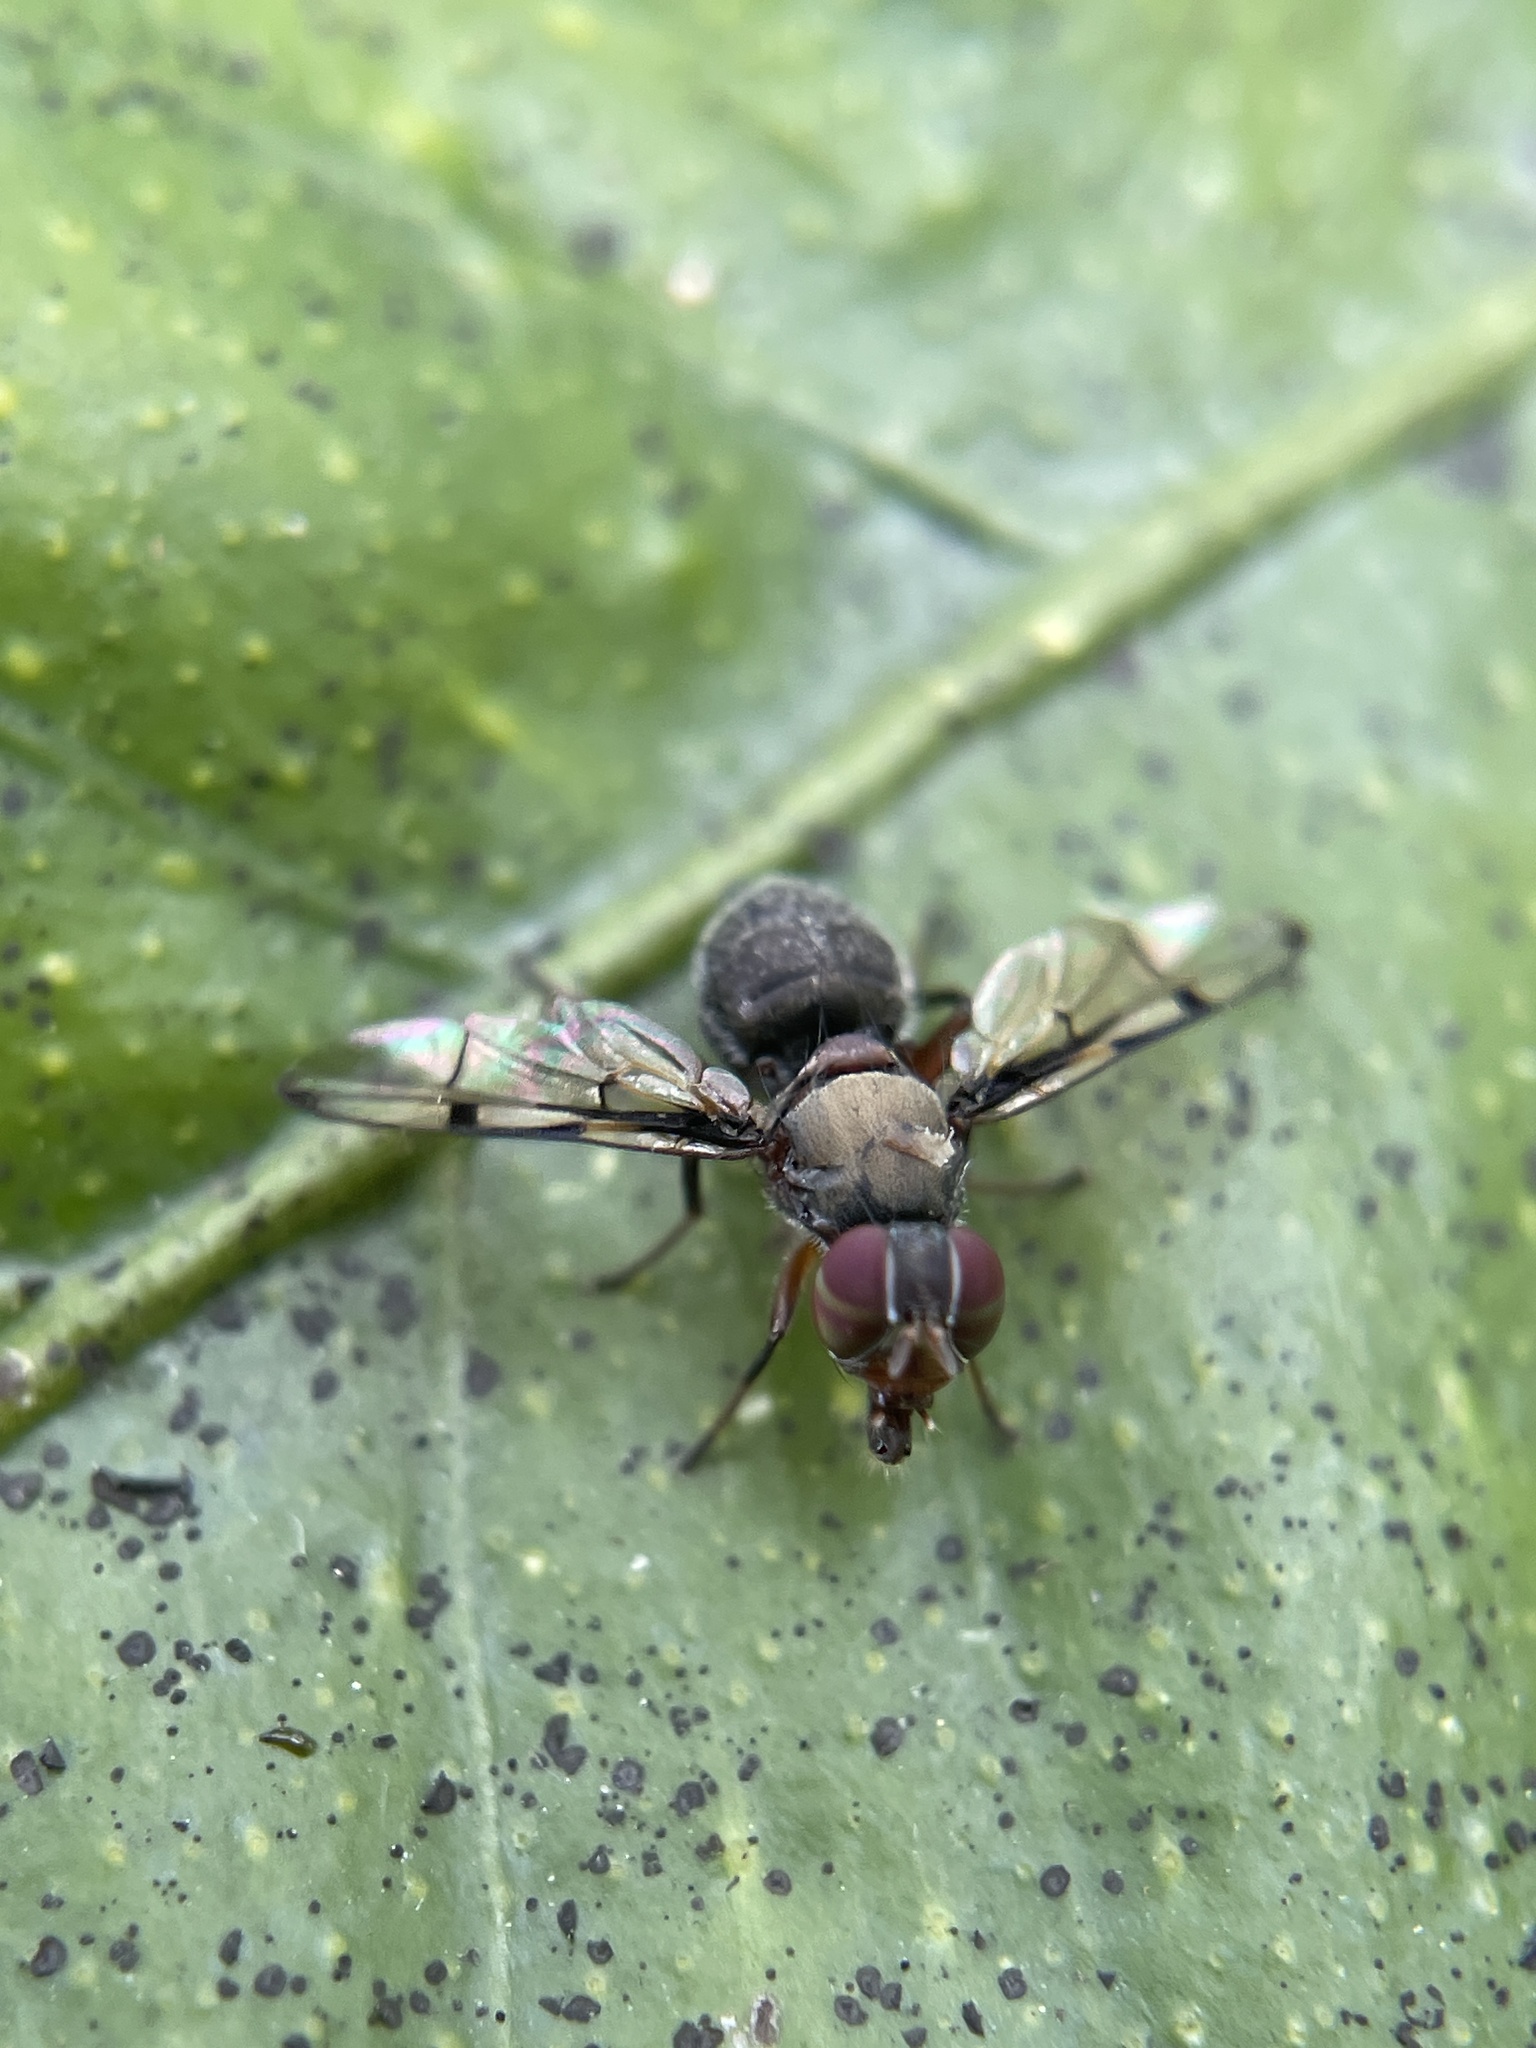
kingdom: Animalia
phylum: Arthropoda
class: Insecta
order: Diptera
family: Platystomatidae
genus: Pogonortalis
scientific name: Pogonortalis doclea
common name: Boatman fly
